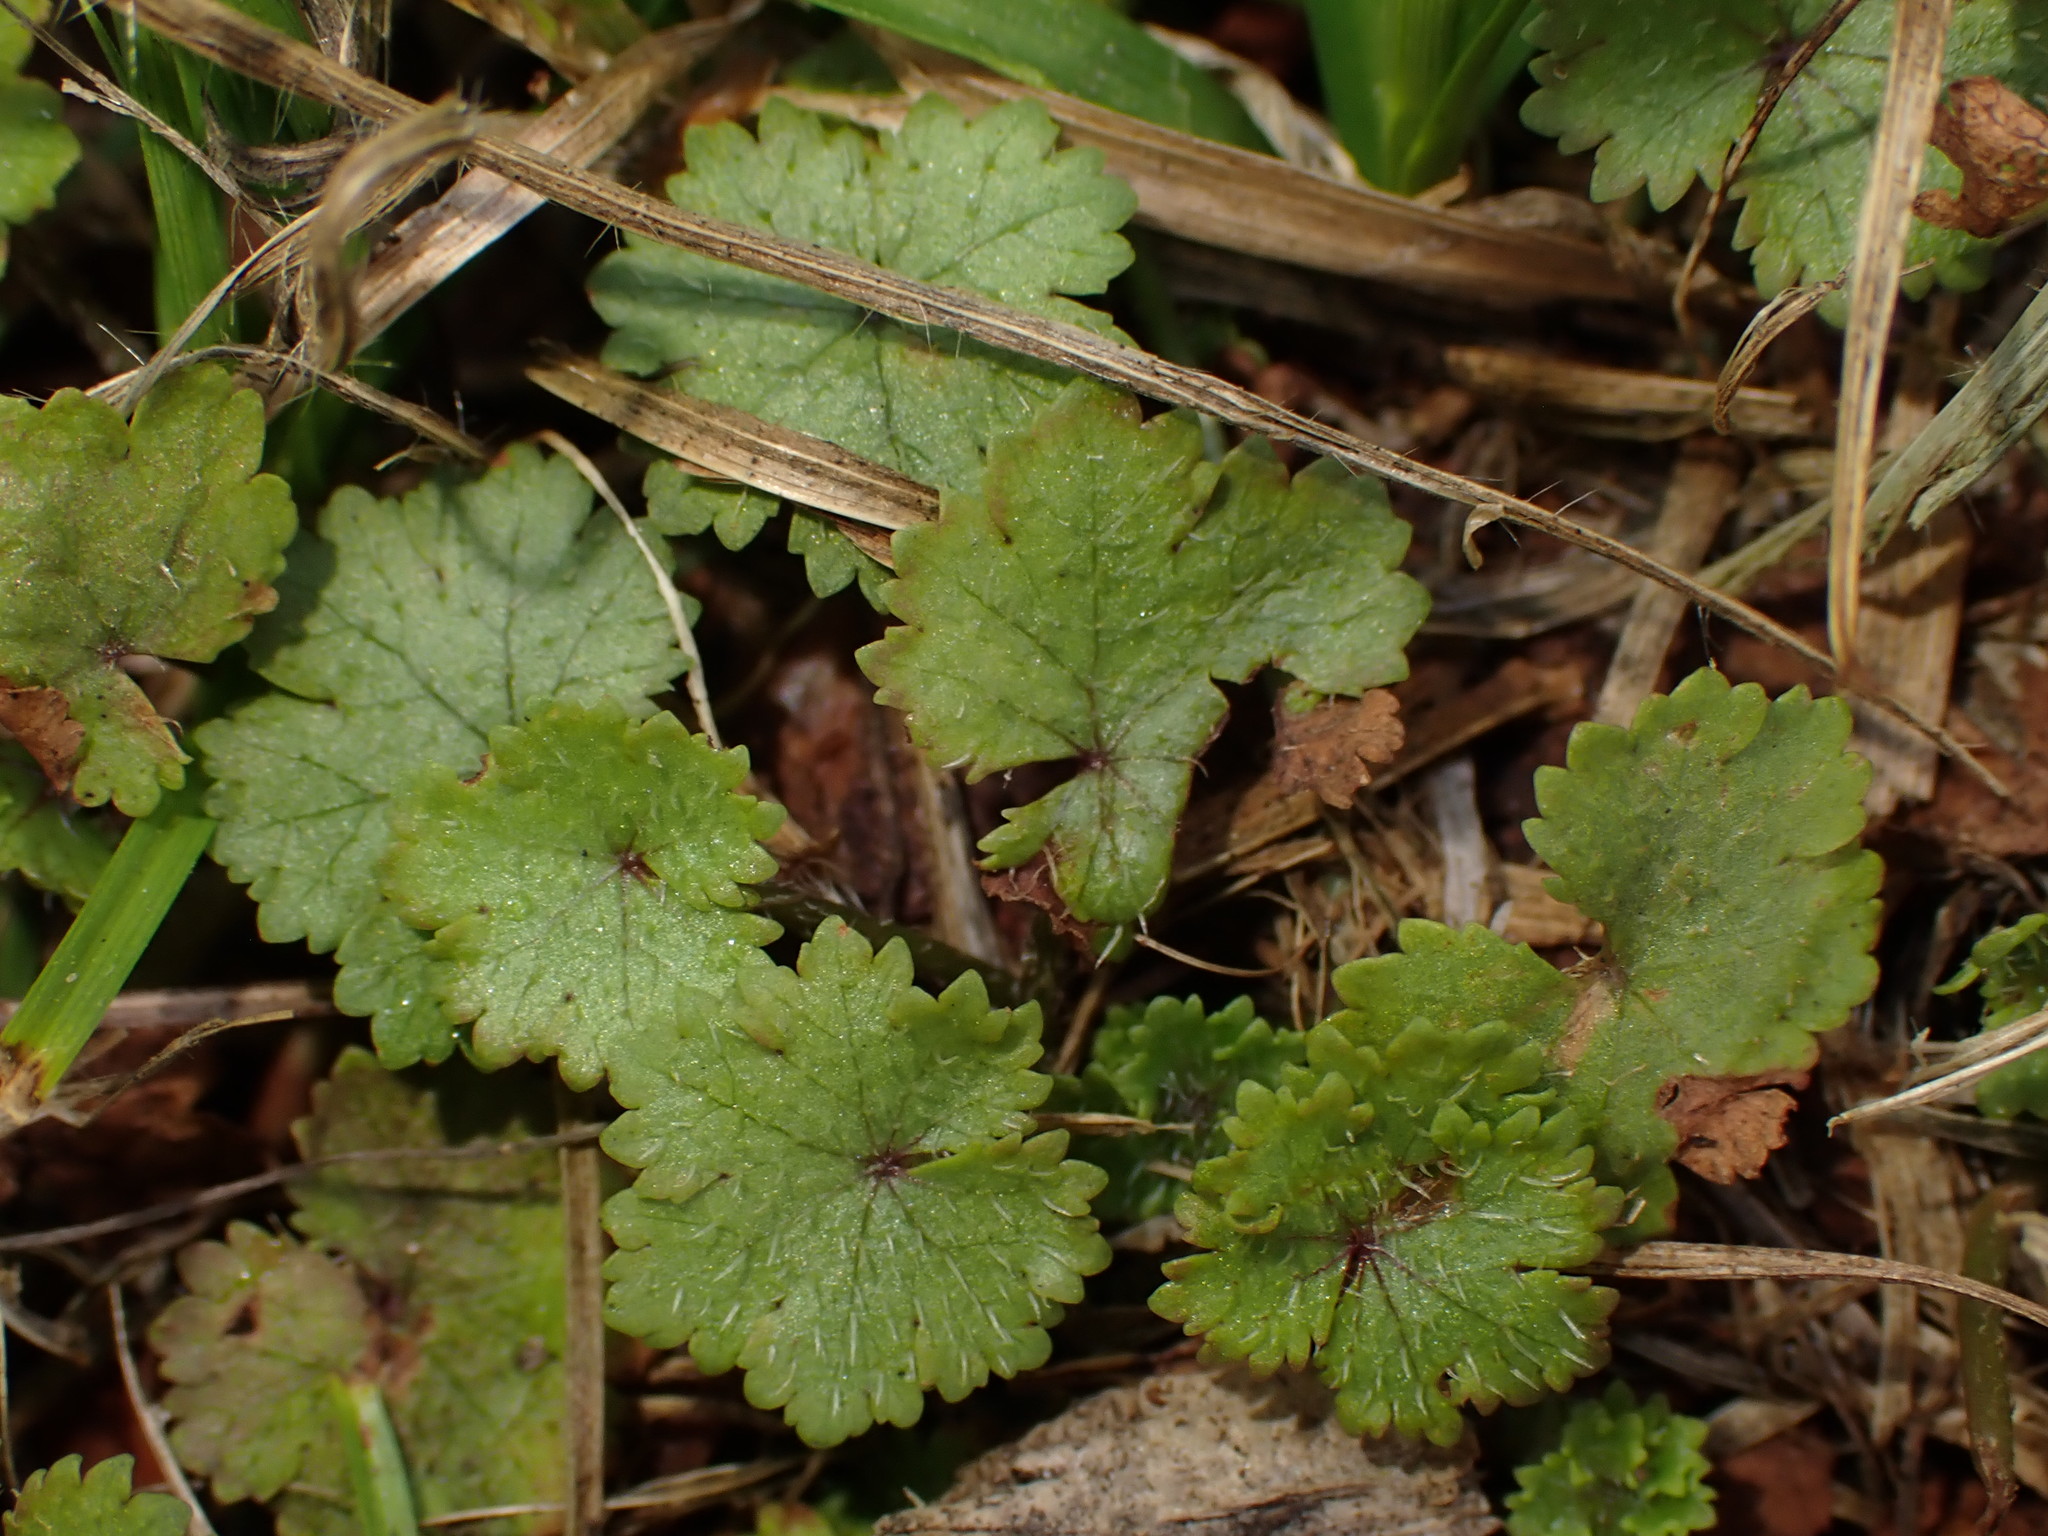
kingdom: Plantae
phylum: Tracheophyta
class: Magnoliopsida
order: Apiales
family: Araliaceae
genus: Hydrocotyle
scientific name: Hydrocotyle moschata
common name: Hairy pennywort
